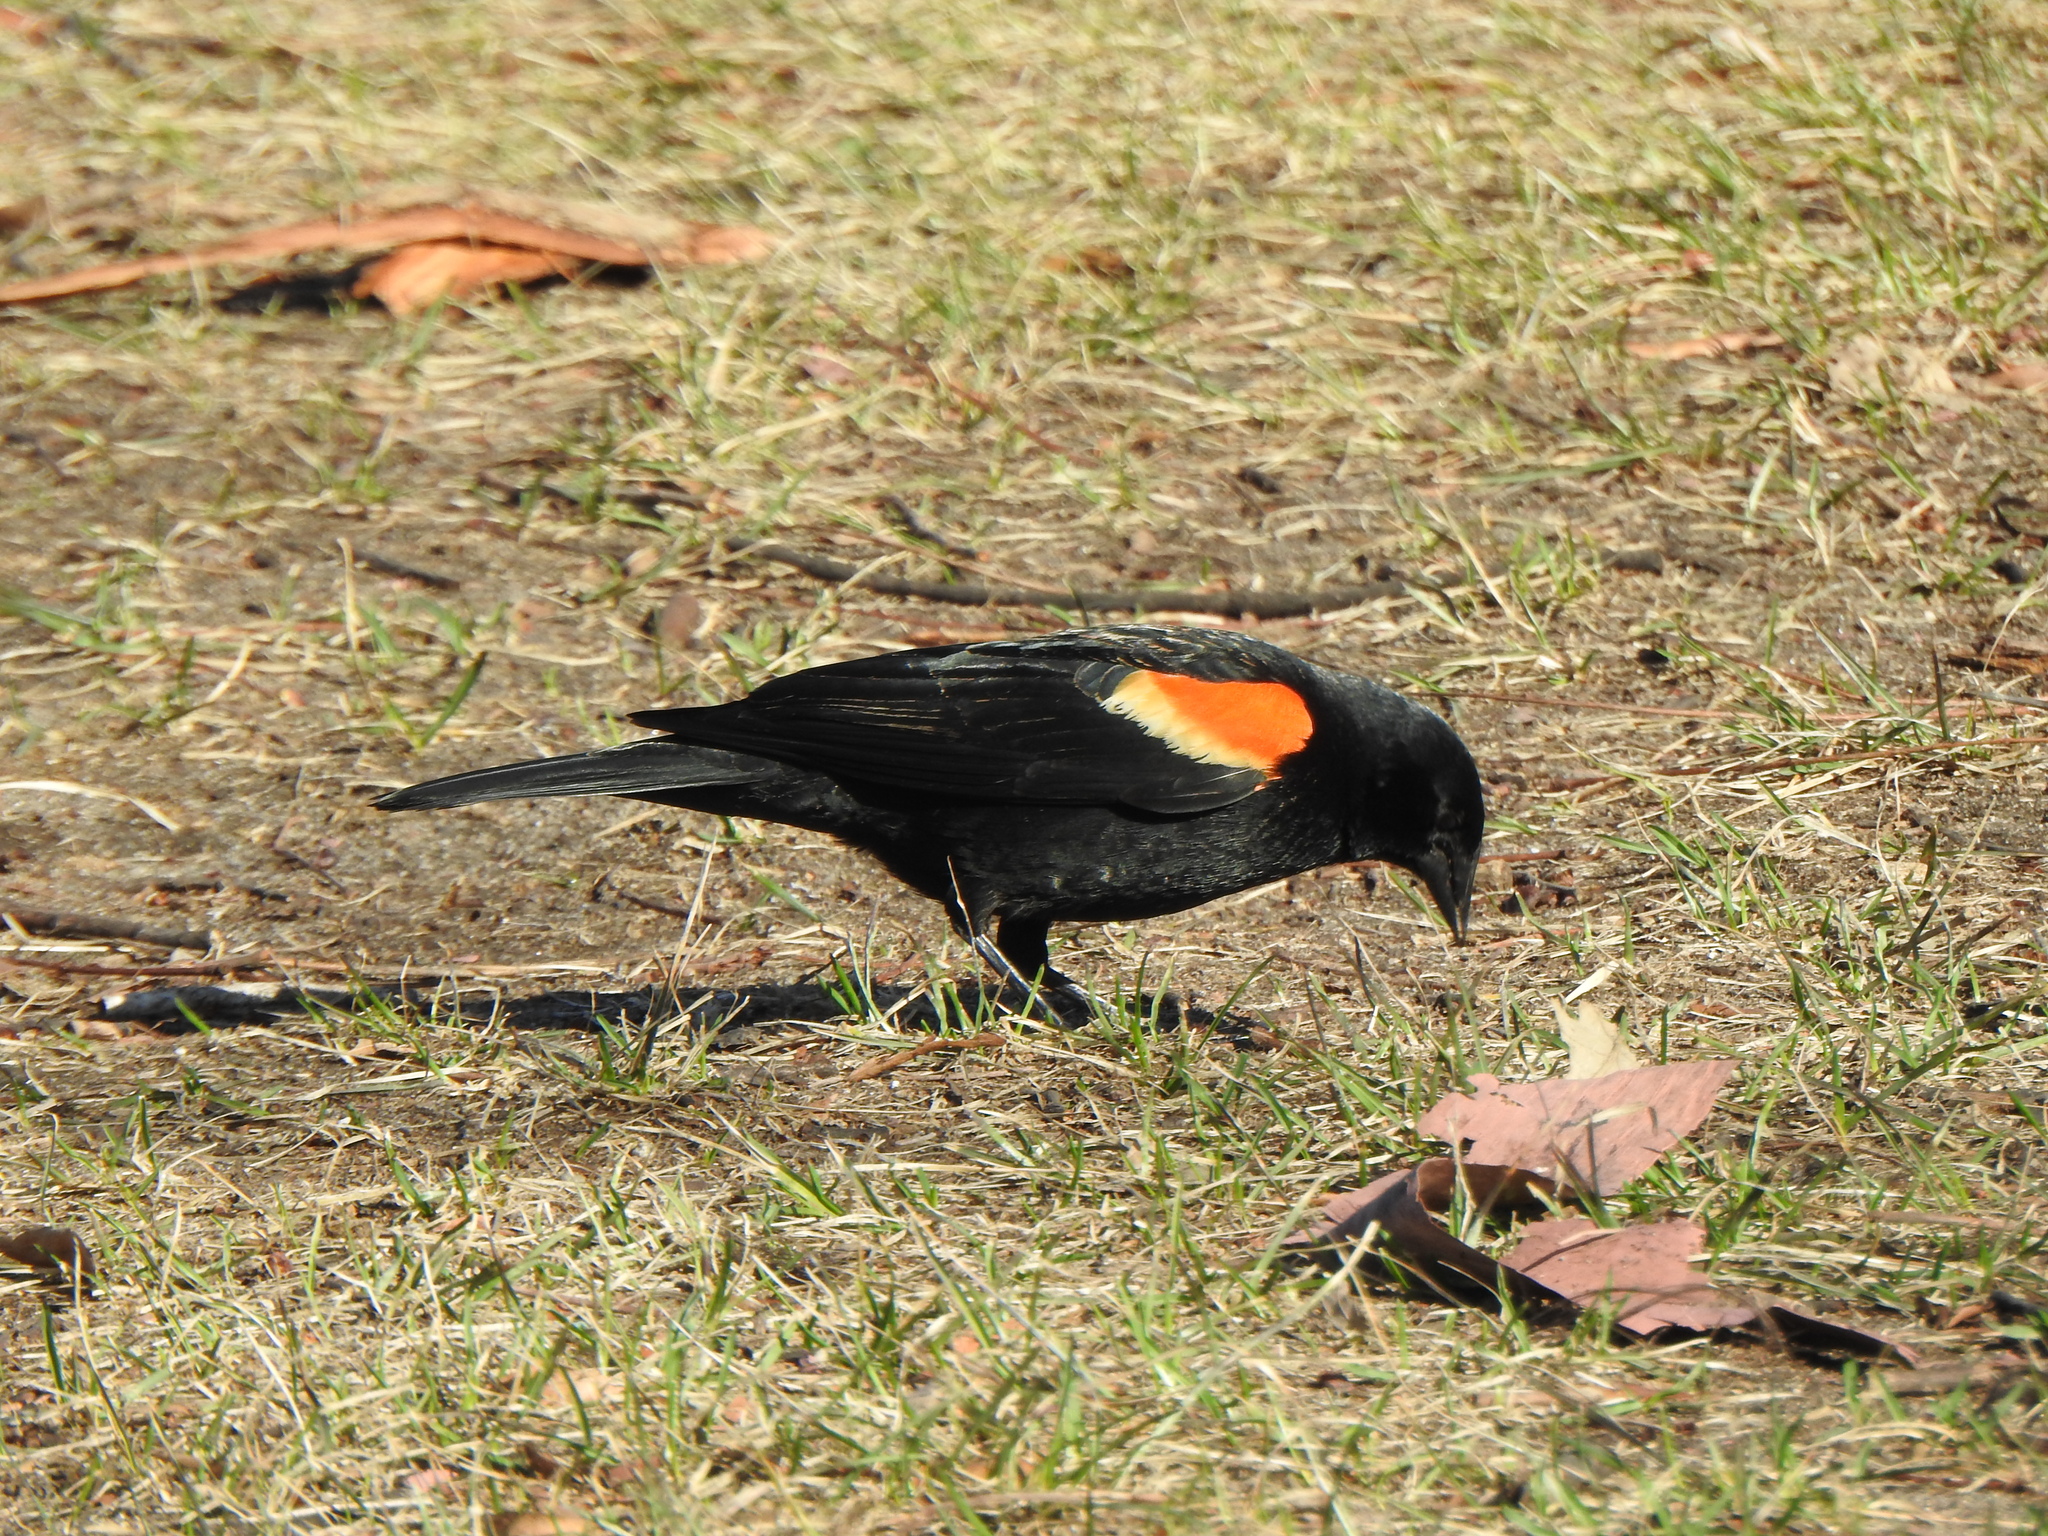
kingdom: Animalia
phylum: Chordata
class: Aves
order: Passeriformes
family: Icteridae
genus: Agelaius
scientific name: Agelaius phoeniceus
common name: Red-winged blackbird
